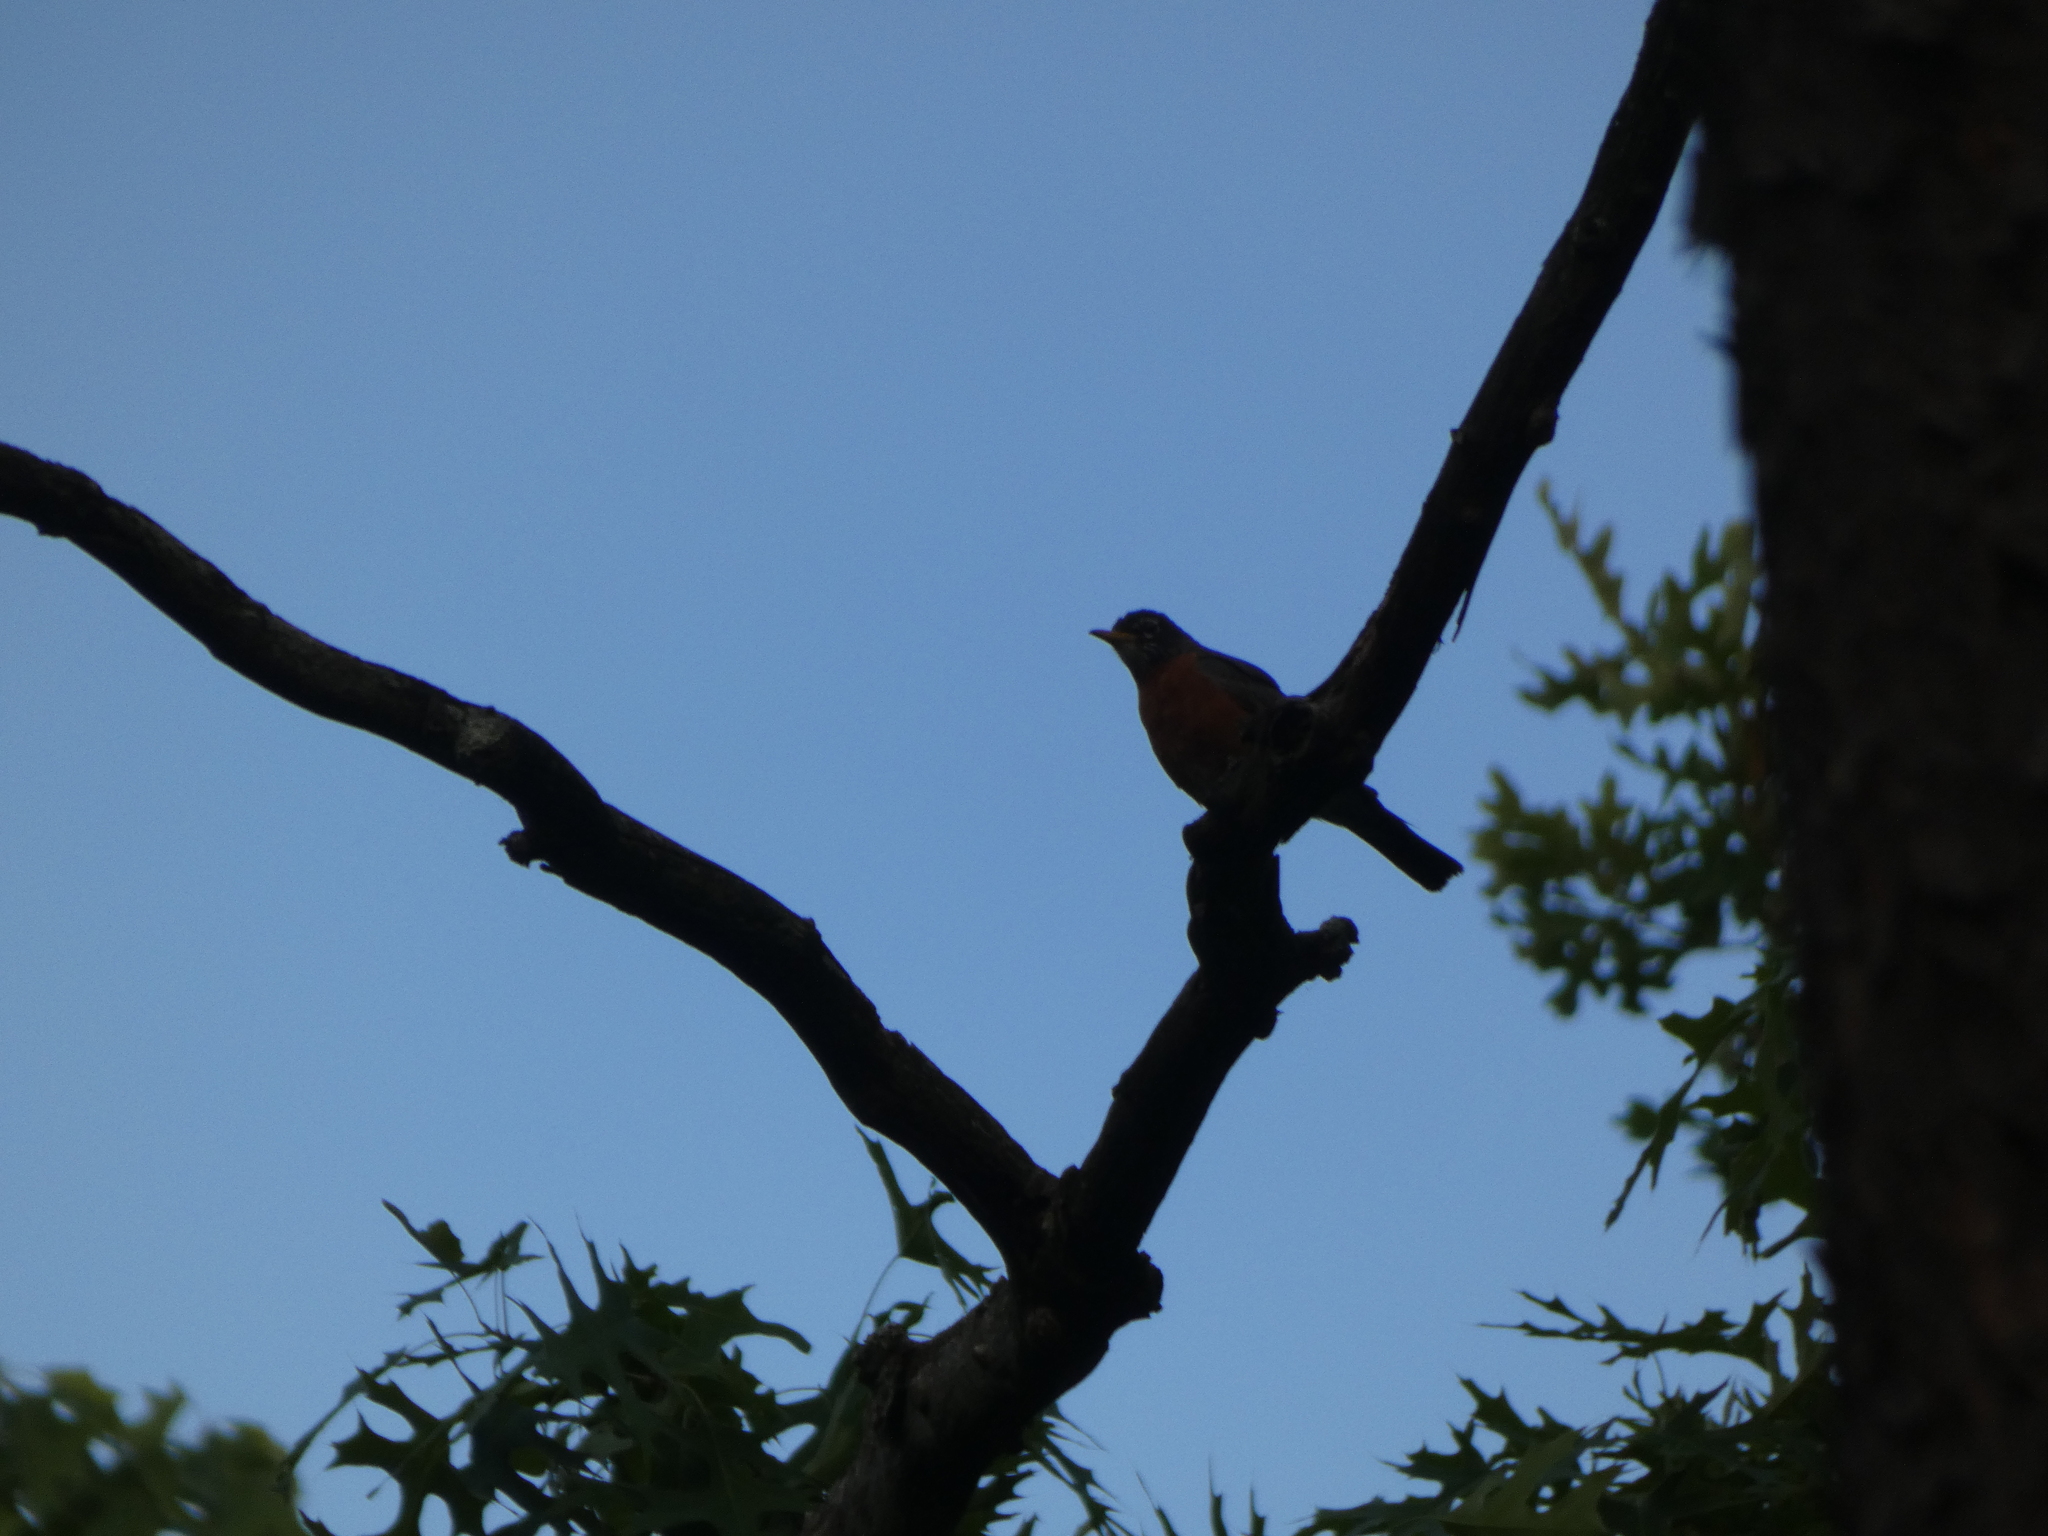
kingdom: Animalia
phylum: Chordata
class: Aves
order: Passeriformes
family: Turdidae
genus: Turdus
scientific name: Turdus migratorius
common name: American robin
